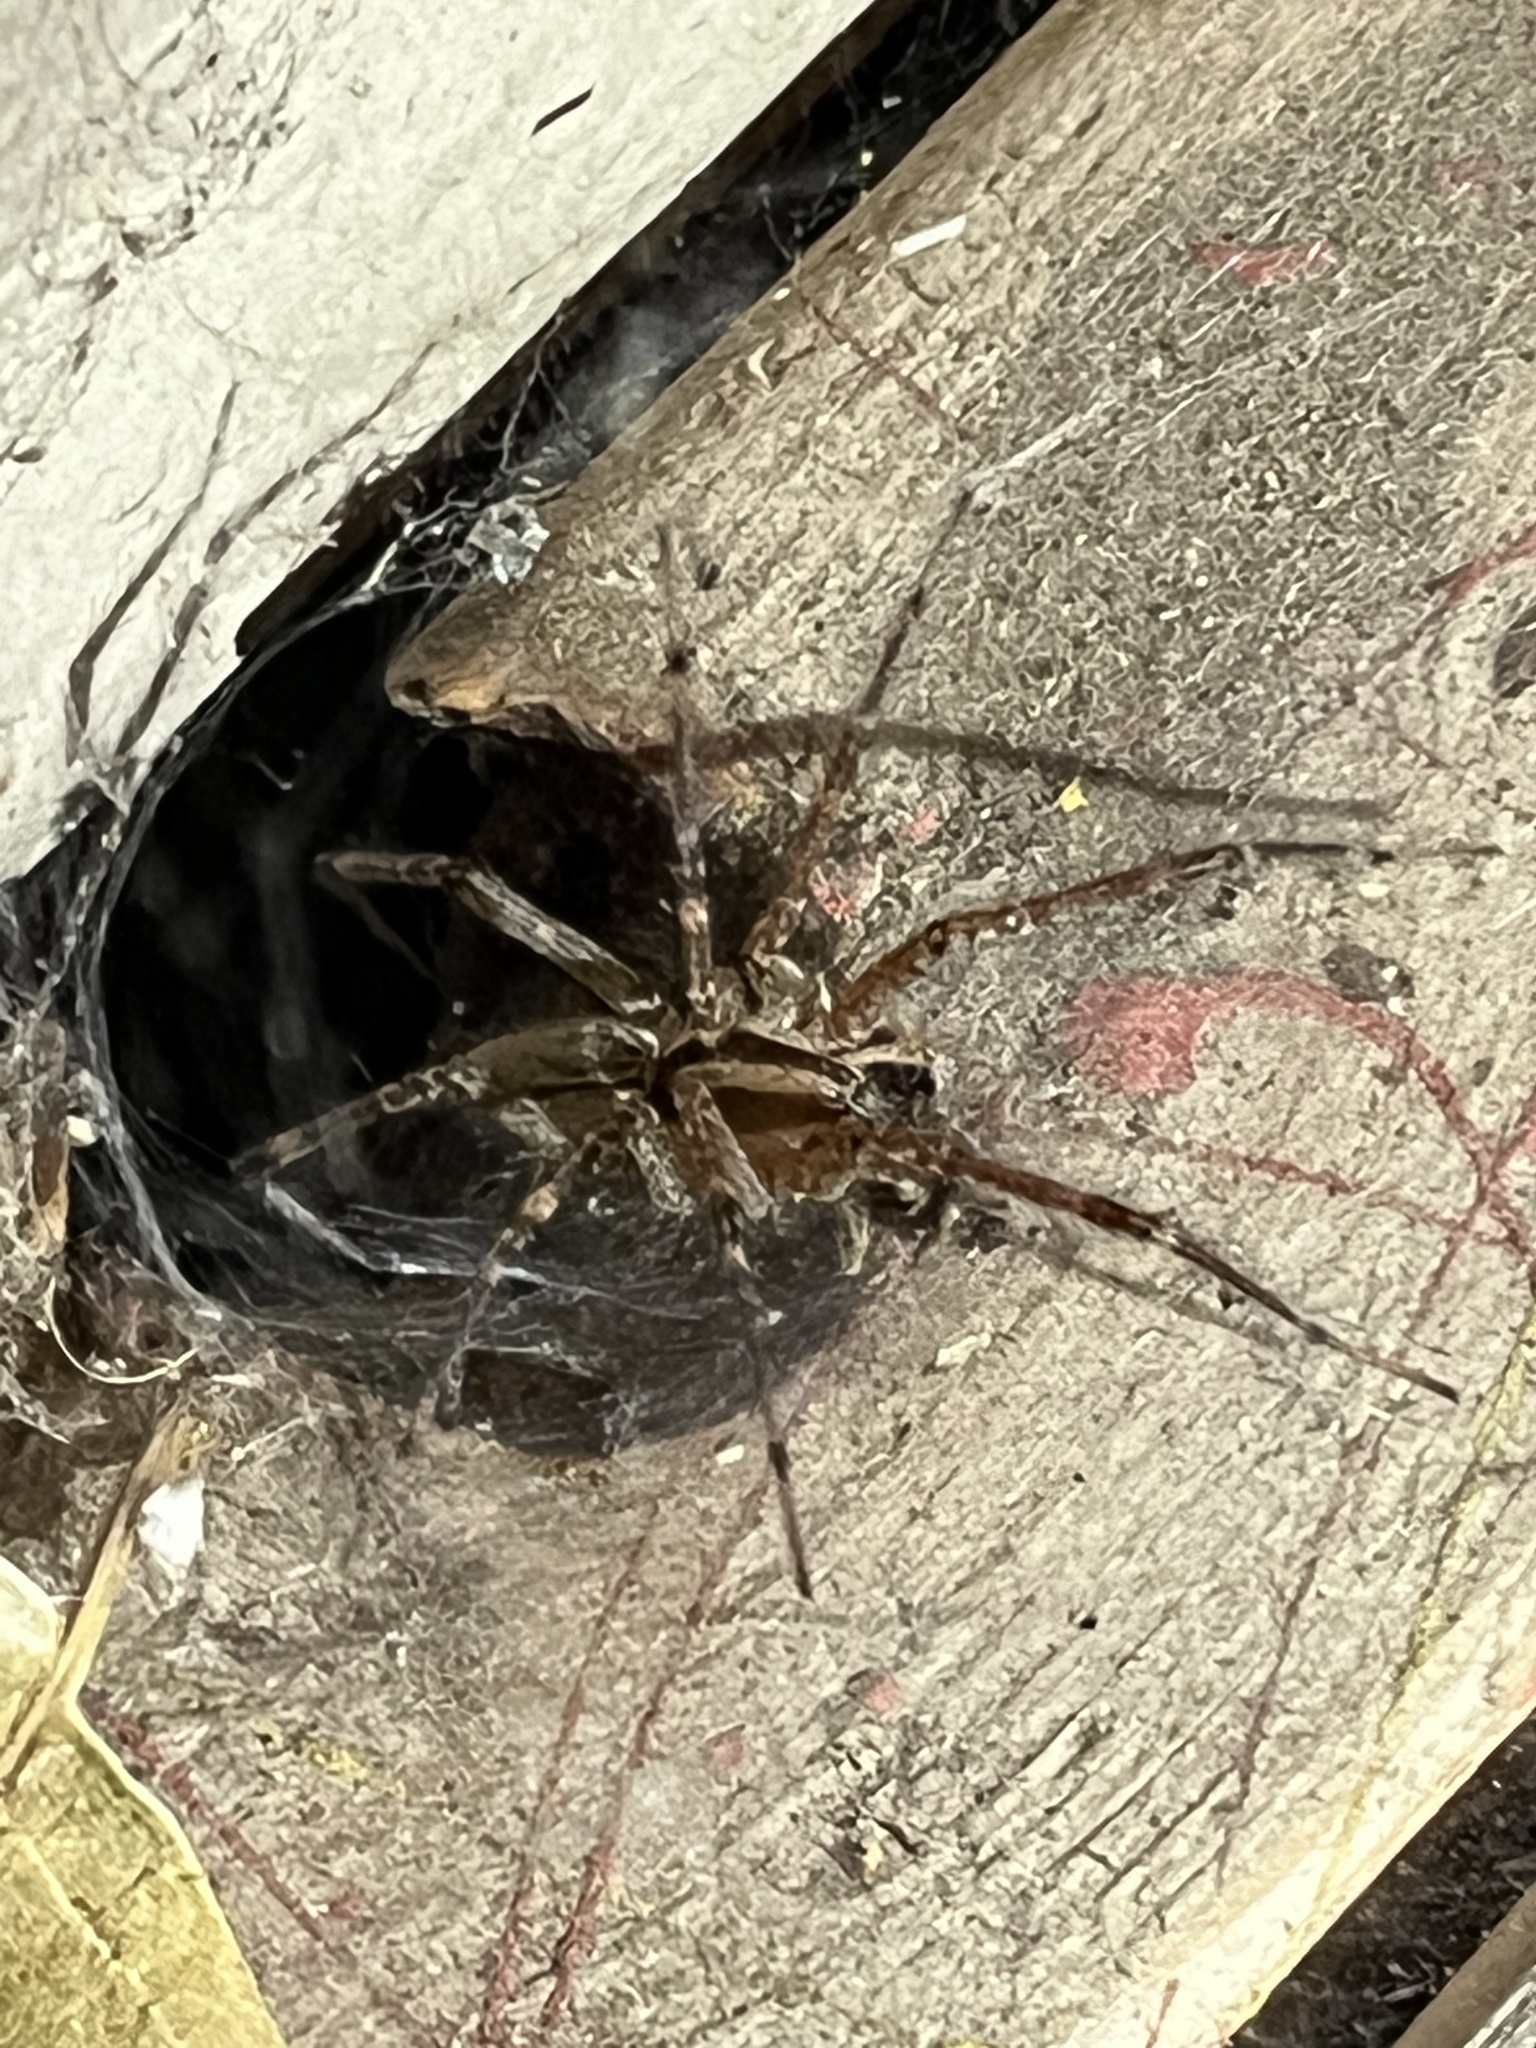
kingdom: Animalia
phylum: Arthropoda
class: Arachnida
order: Araneae
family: Agelenidae
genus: Agelenopsis
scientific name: Agelenopsis
